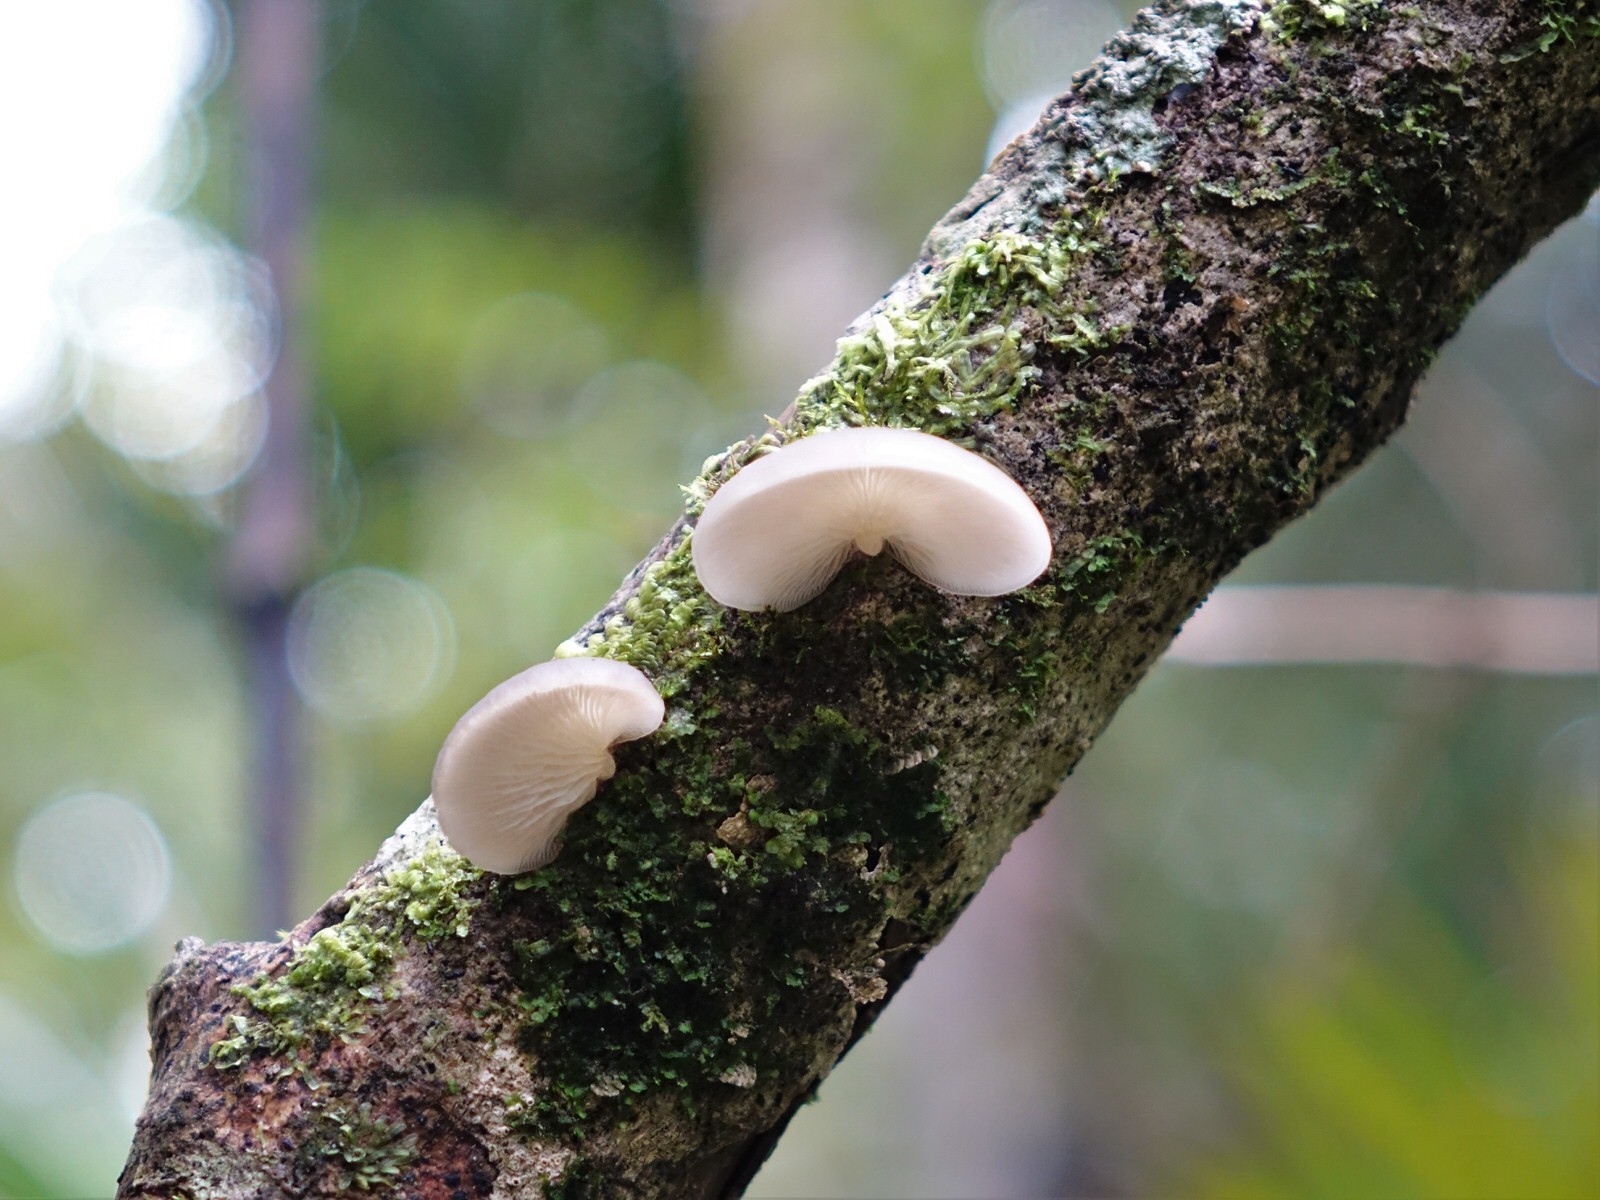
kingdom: Fungi
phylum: Basidiomycota
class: Agaricomycetes
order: Agaricales
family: Tricholomataceae
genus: Conchomyces
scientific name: Conchomyces bursiformis
